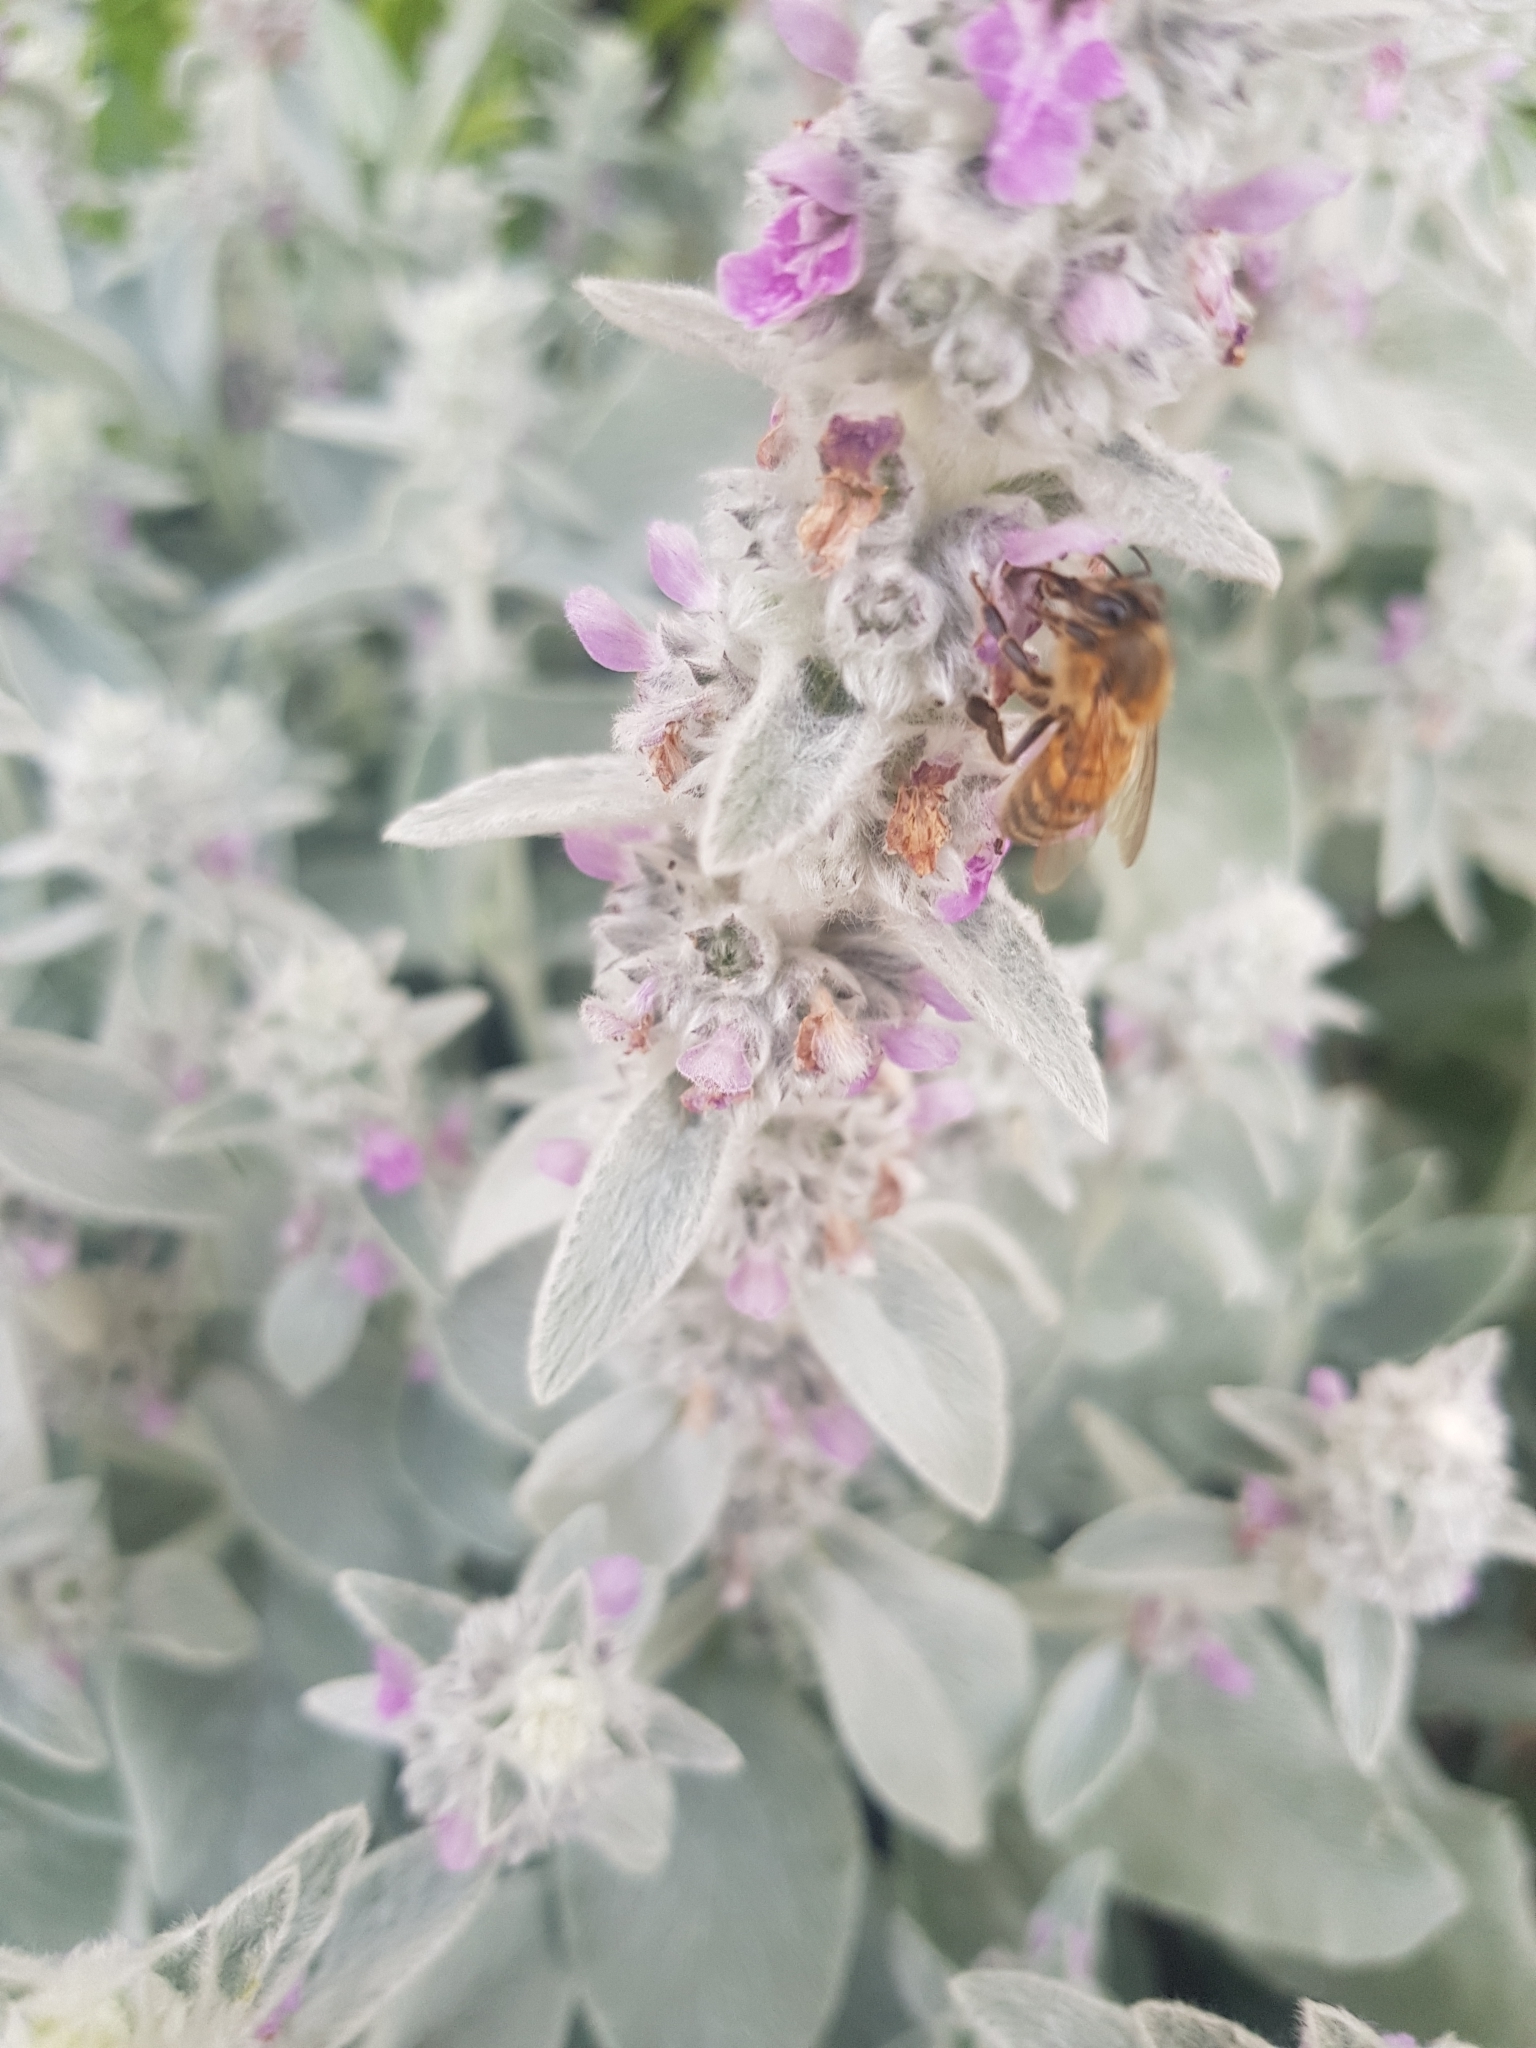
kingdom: Animalia
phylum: Arthropoda
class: Insecta
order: Hymenoptera
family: Apidae
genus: Apis
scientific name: Apis mellifera
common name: Honey bee
